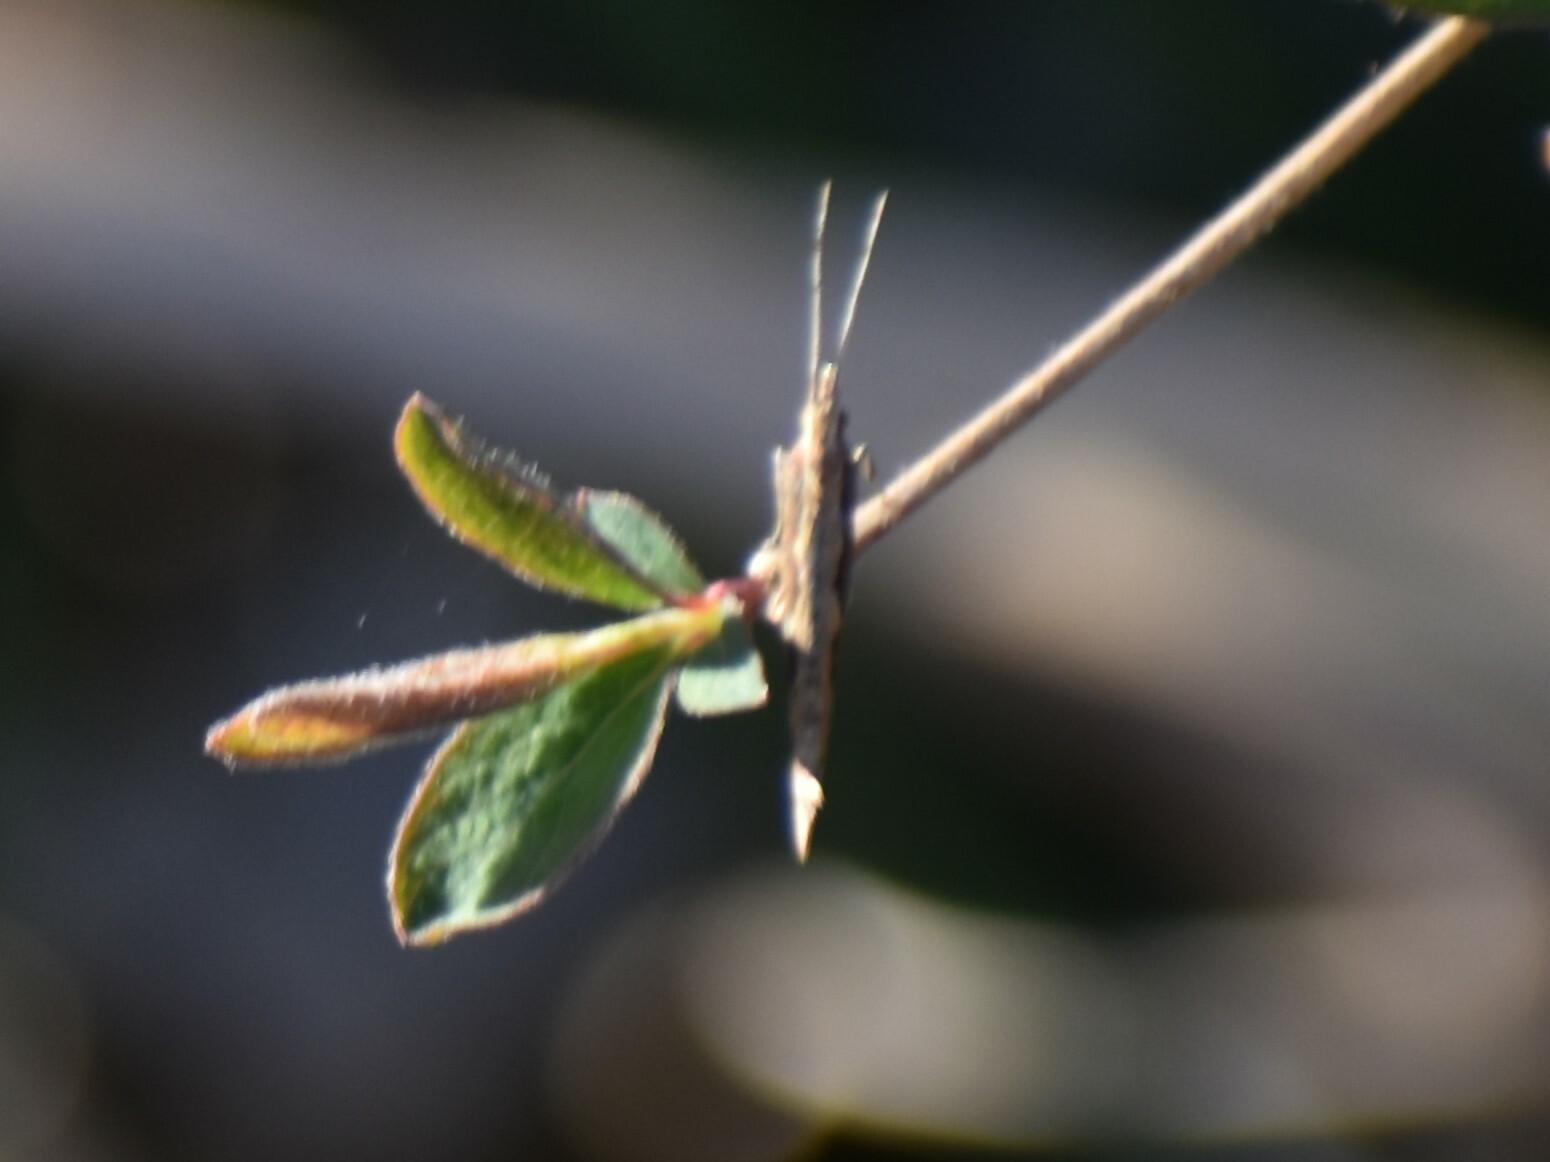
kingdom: Animalia
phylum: Arthropoda
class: Insecta
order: Lepidoptera
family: Plutellidae
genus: Plutella
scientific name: Plutella xylostella
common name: Diamond-back moth
